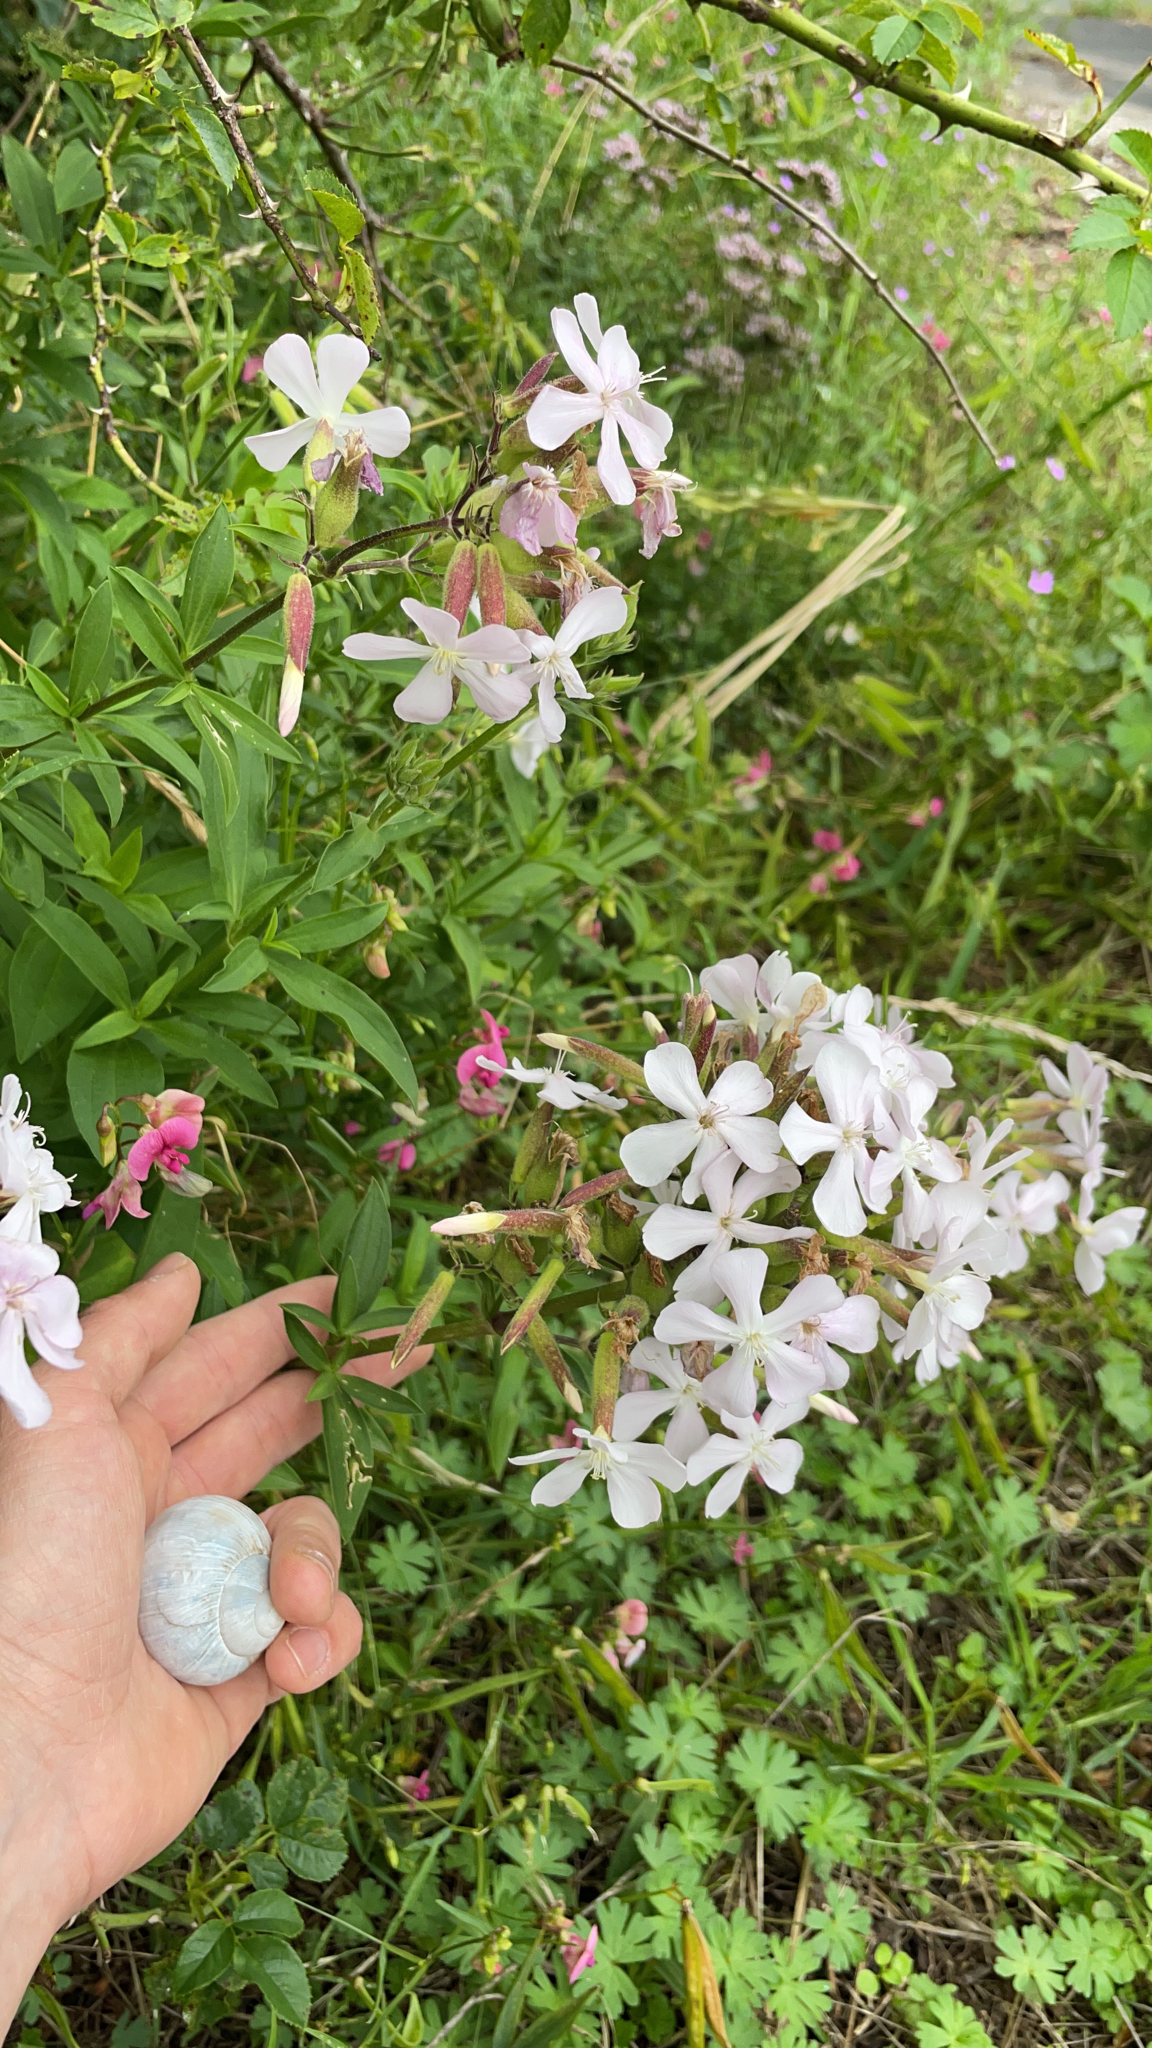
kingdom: Plantae
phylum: Tracheophyta
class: Magnoliopsida
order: Caryophyllales
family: Caryophyllaceae
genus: Saponaria
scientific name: Saponaria officinalis
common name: Soapwort
